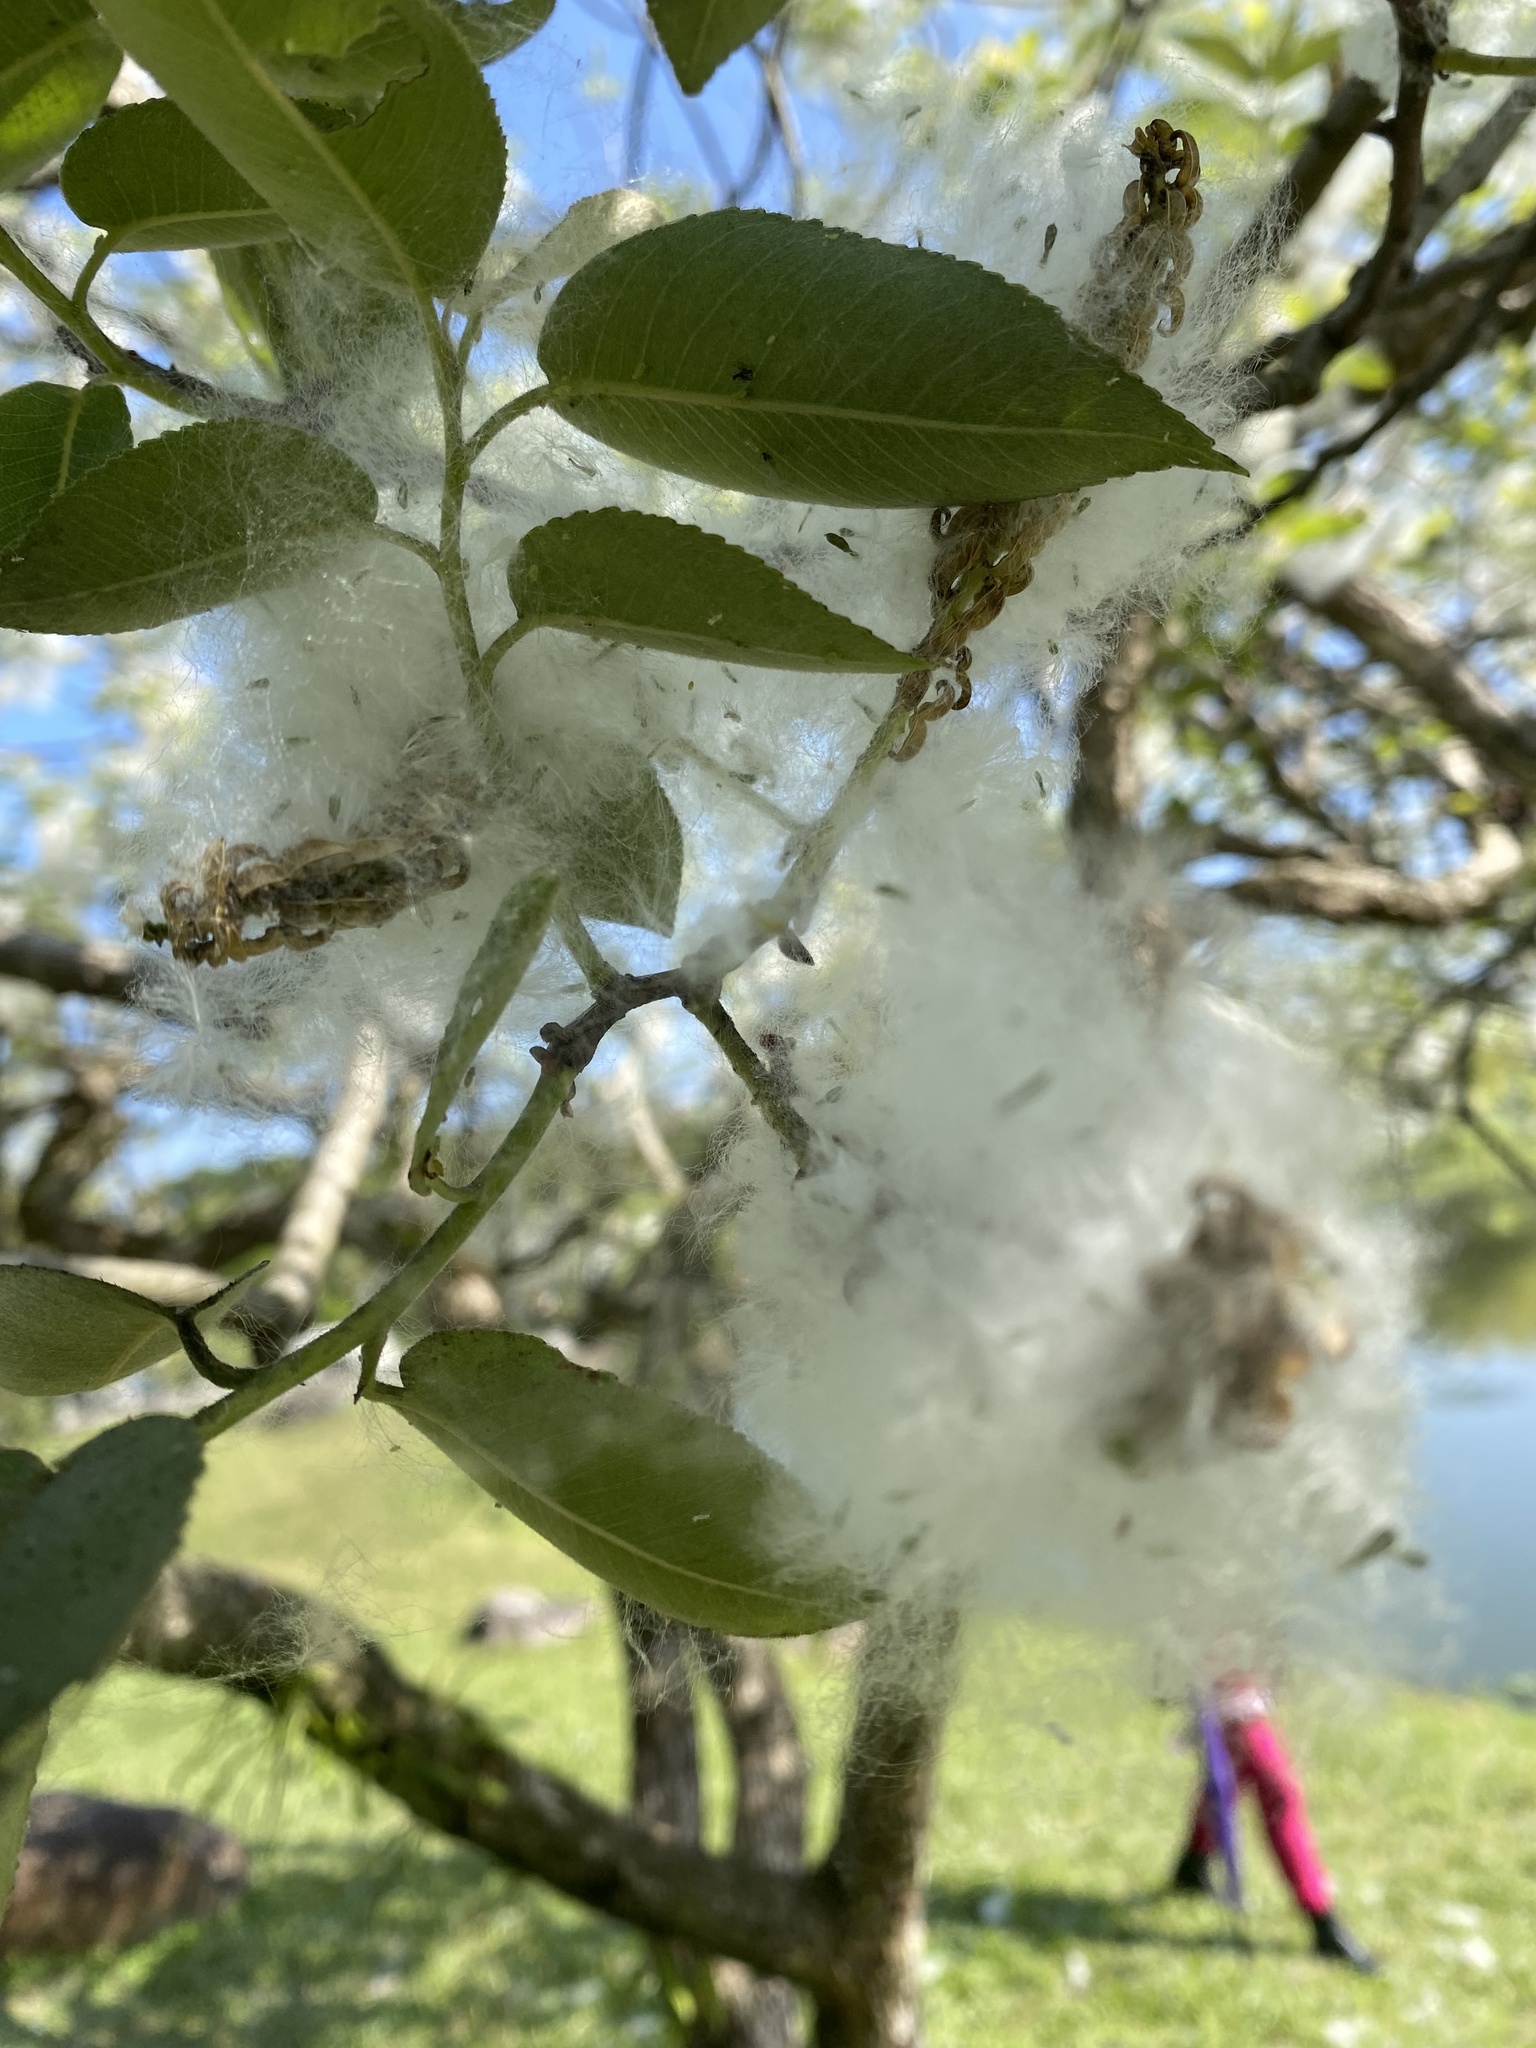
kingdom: Plantae
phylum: Tracheophyta
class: Magnoliopsida
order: Malpighiales
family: Salicaceae
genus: Salix
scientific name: Salix kusanoi
